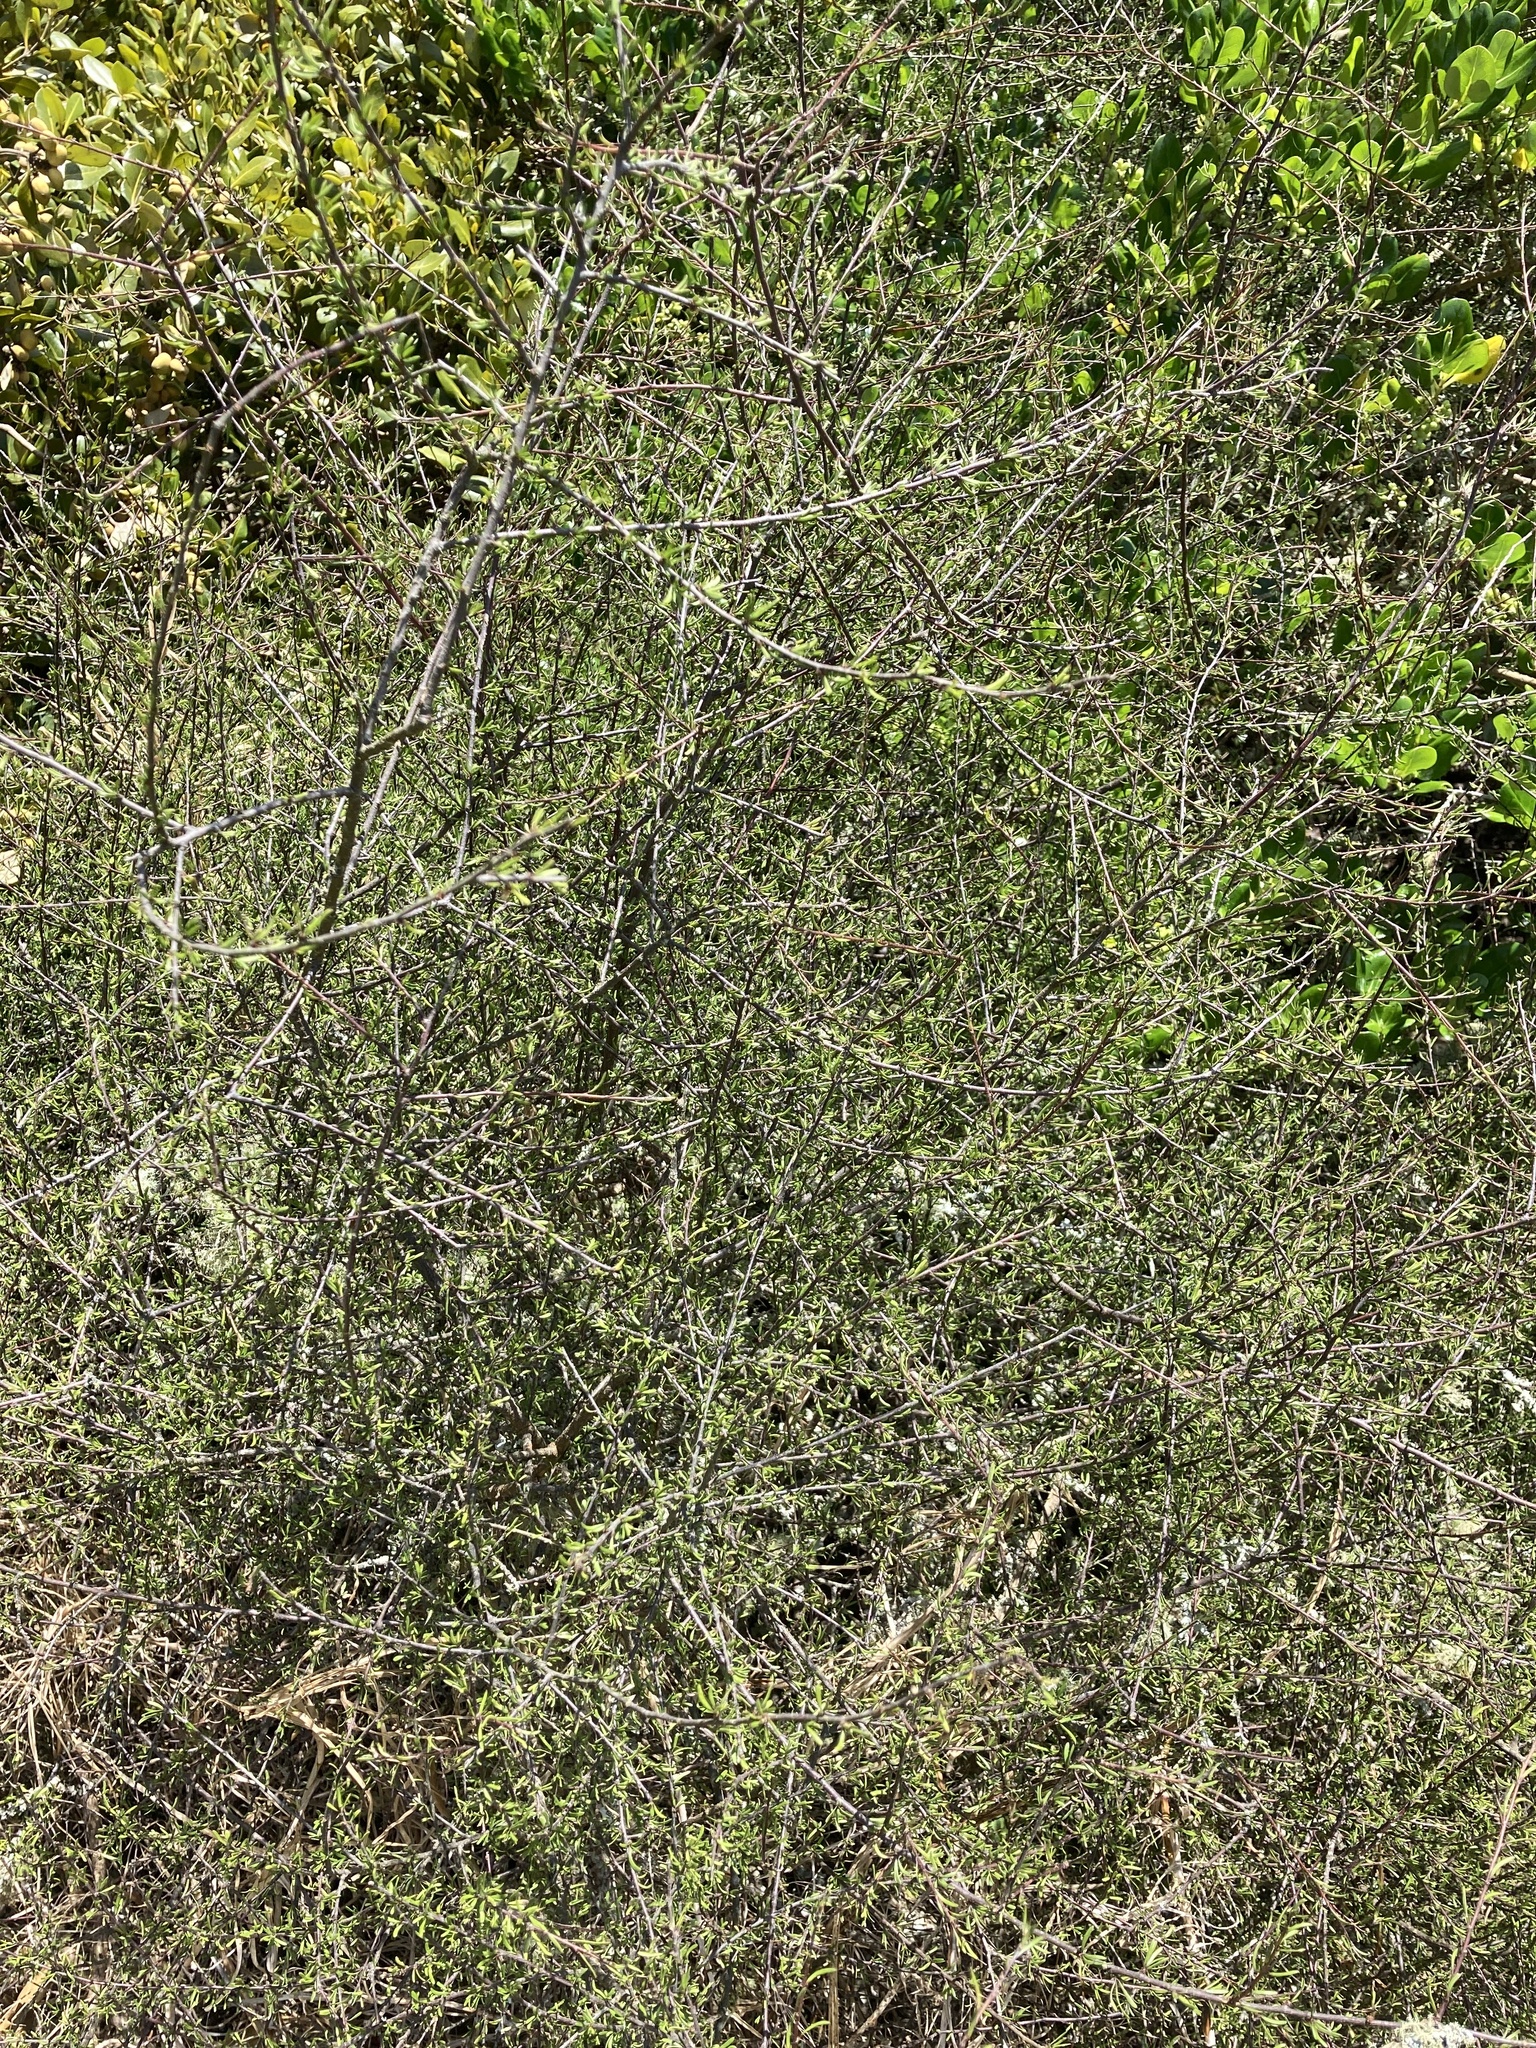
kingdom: Plantae
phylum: Tracheophyta
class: Magnoliopsida
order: Malvales
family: Malvaceae
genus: Plagianthus
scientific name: Plagianthus divaricatus
